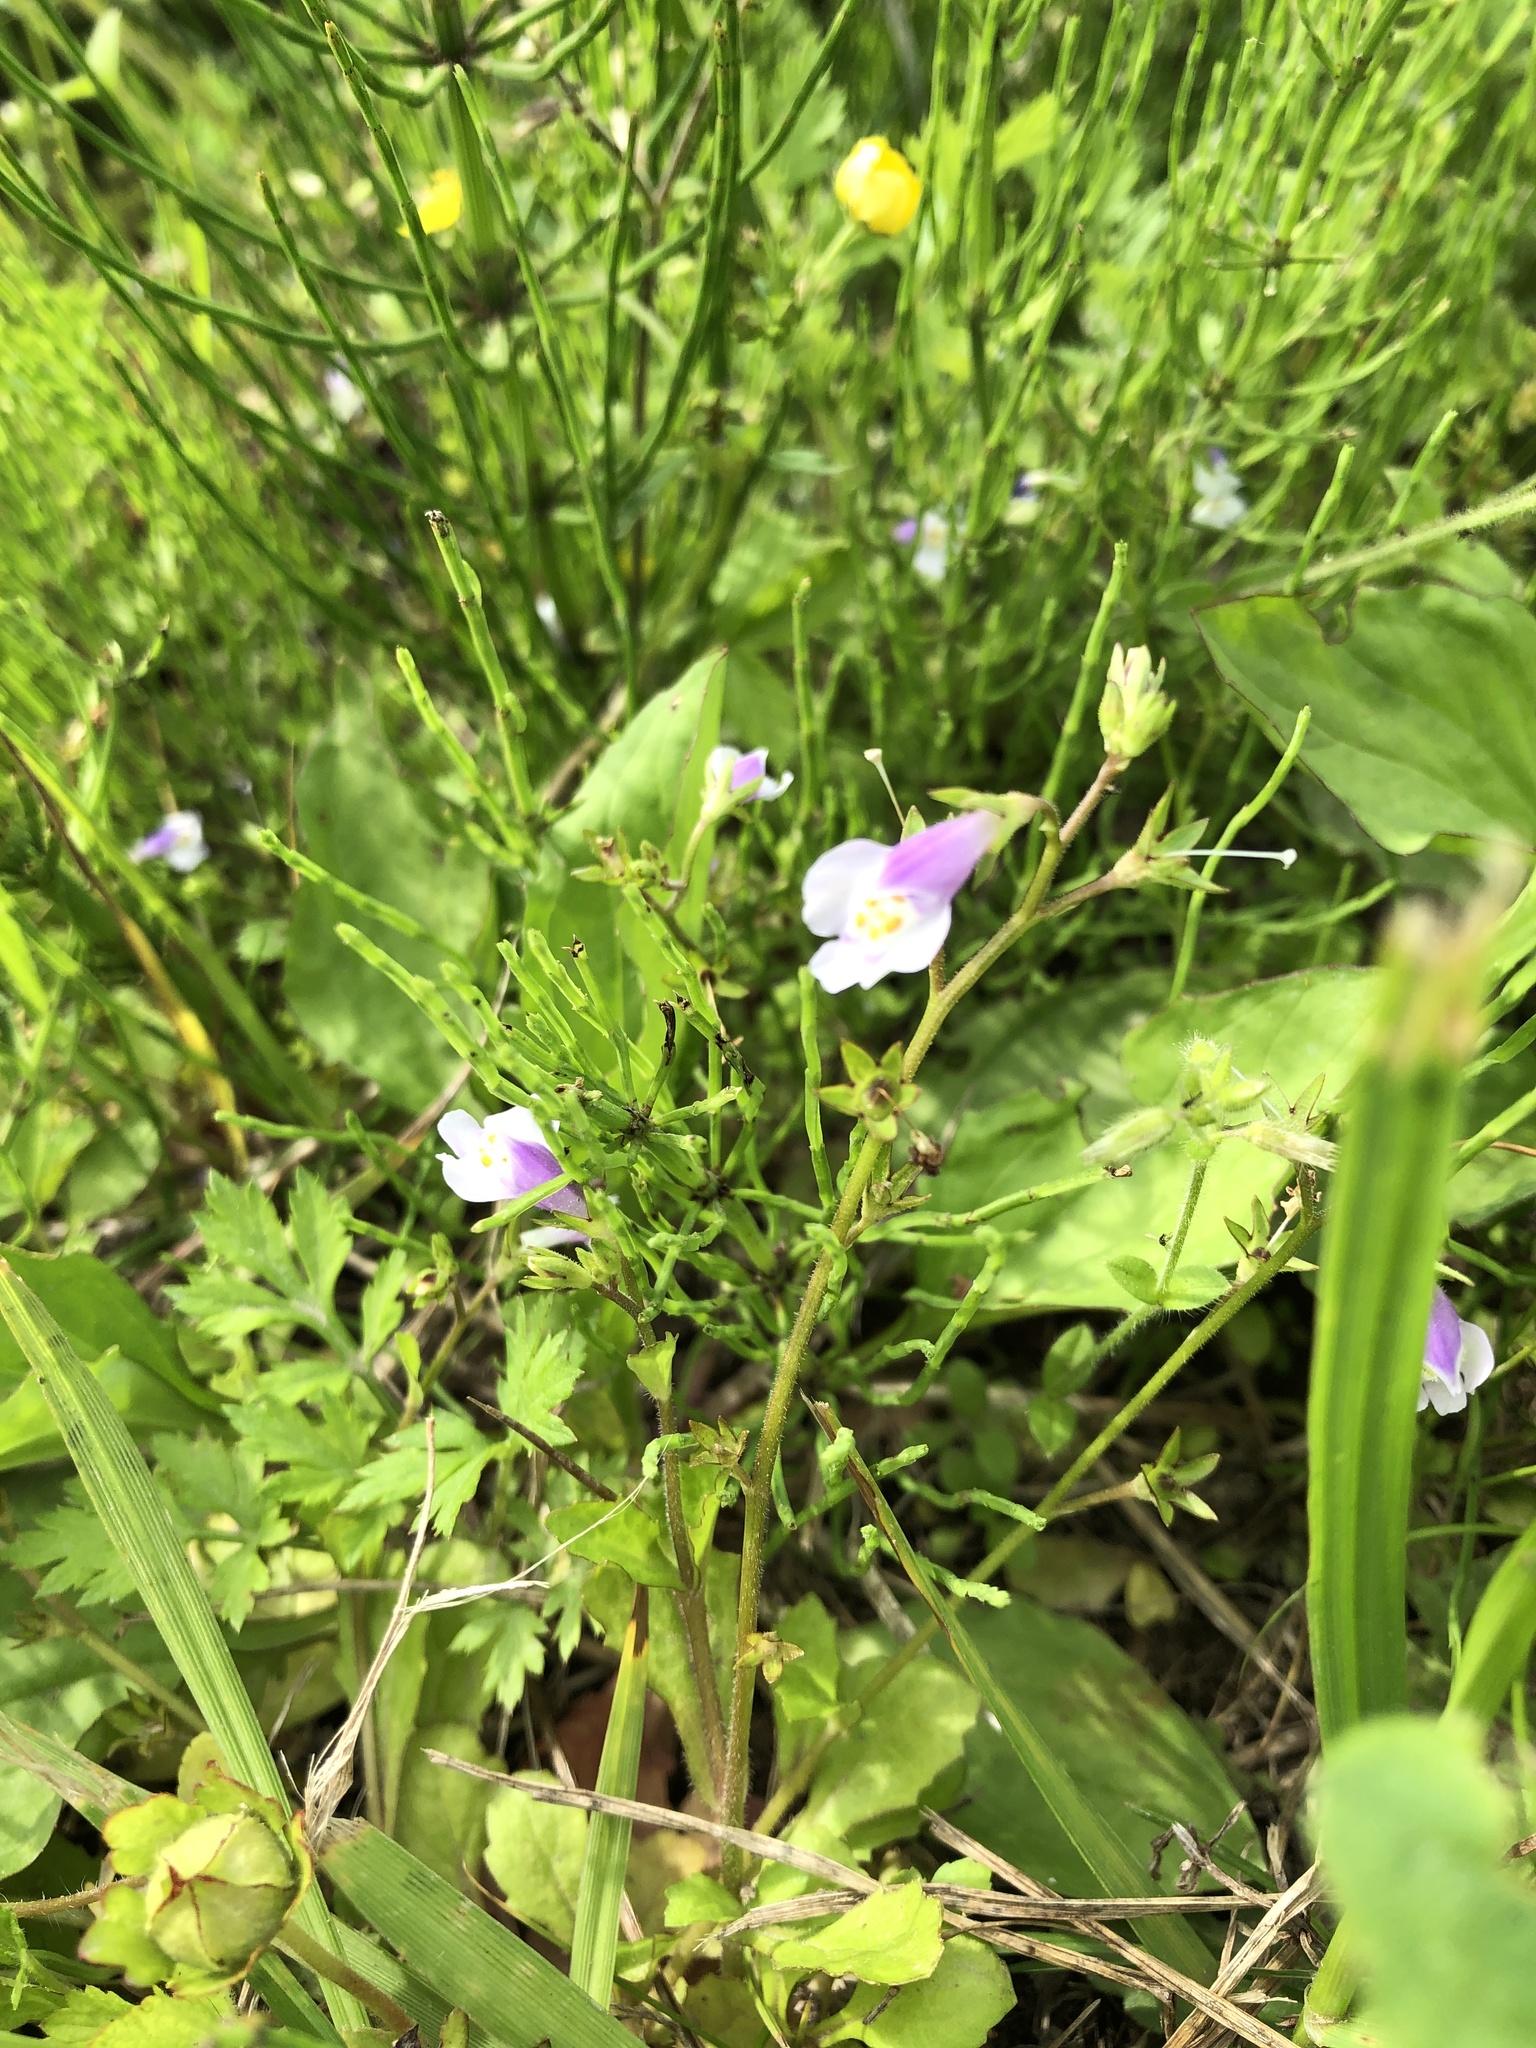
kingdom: Plantae
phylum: Tracheophyta
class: Magnoliopsida
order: Lamiales
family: Mazaceae
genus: Mazus
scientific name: Mazus pumilus
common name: Japanese mazus
